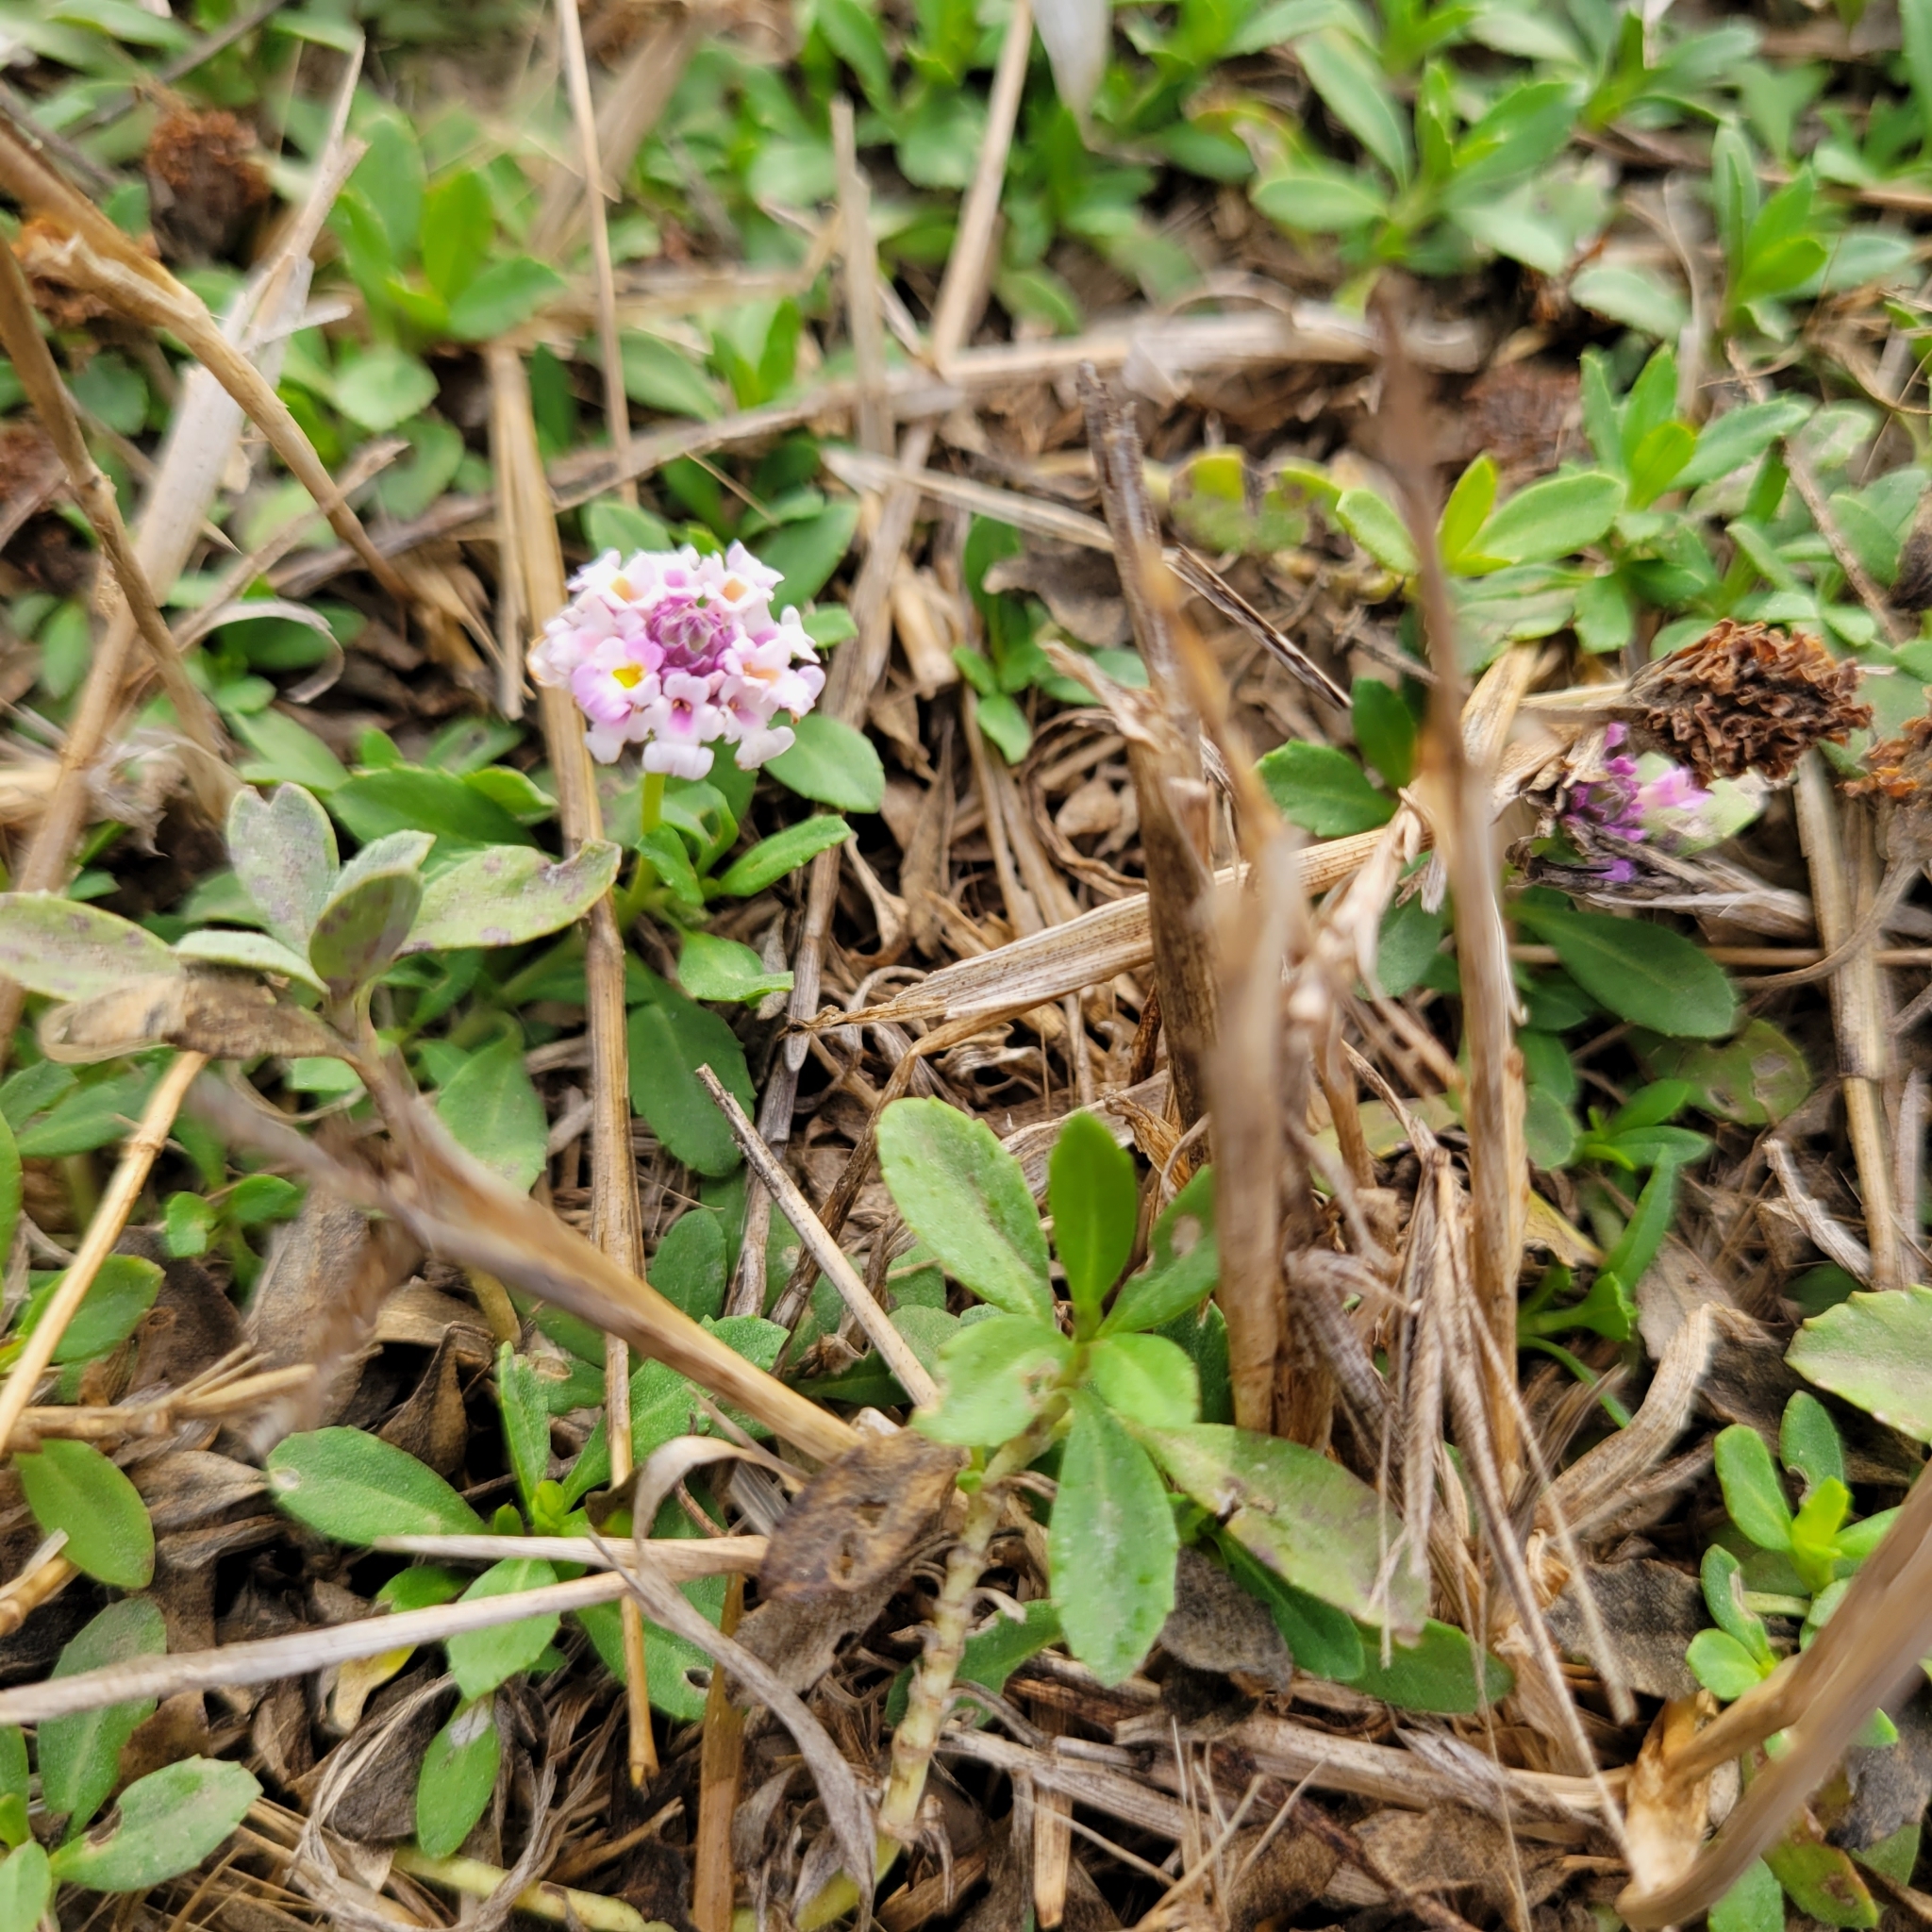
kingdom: Plantae
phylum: Tracheophyta
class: Magnoliopsida
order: Lamiales
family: Verbenaceae
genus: Phyla
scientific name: Phyla nodiflora
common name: Frogfruit
